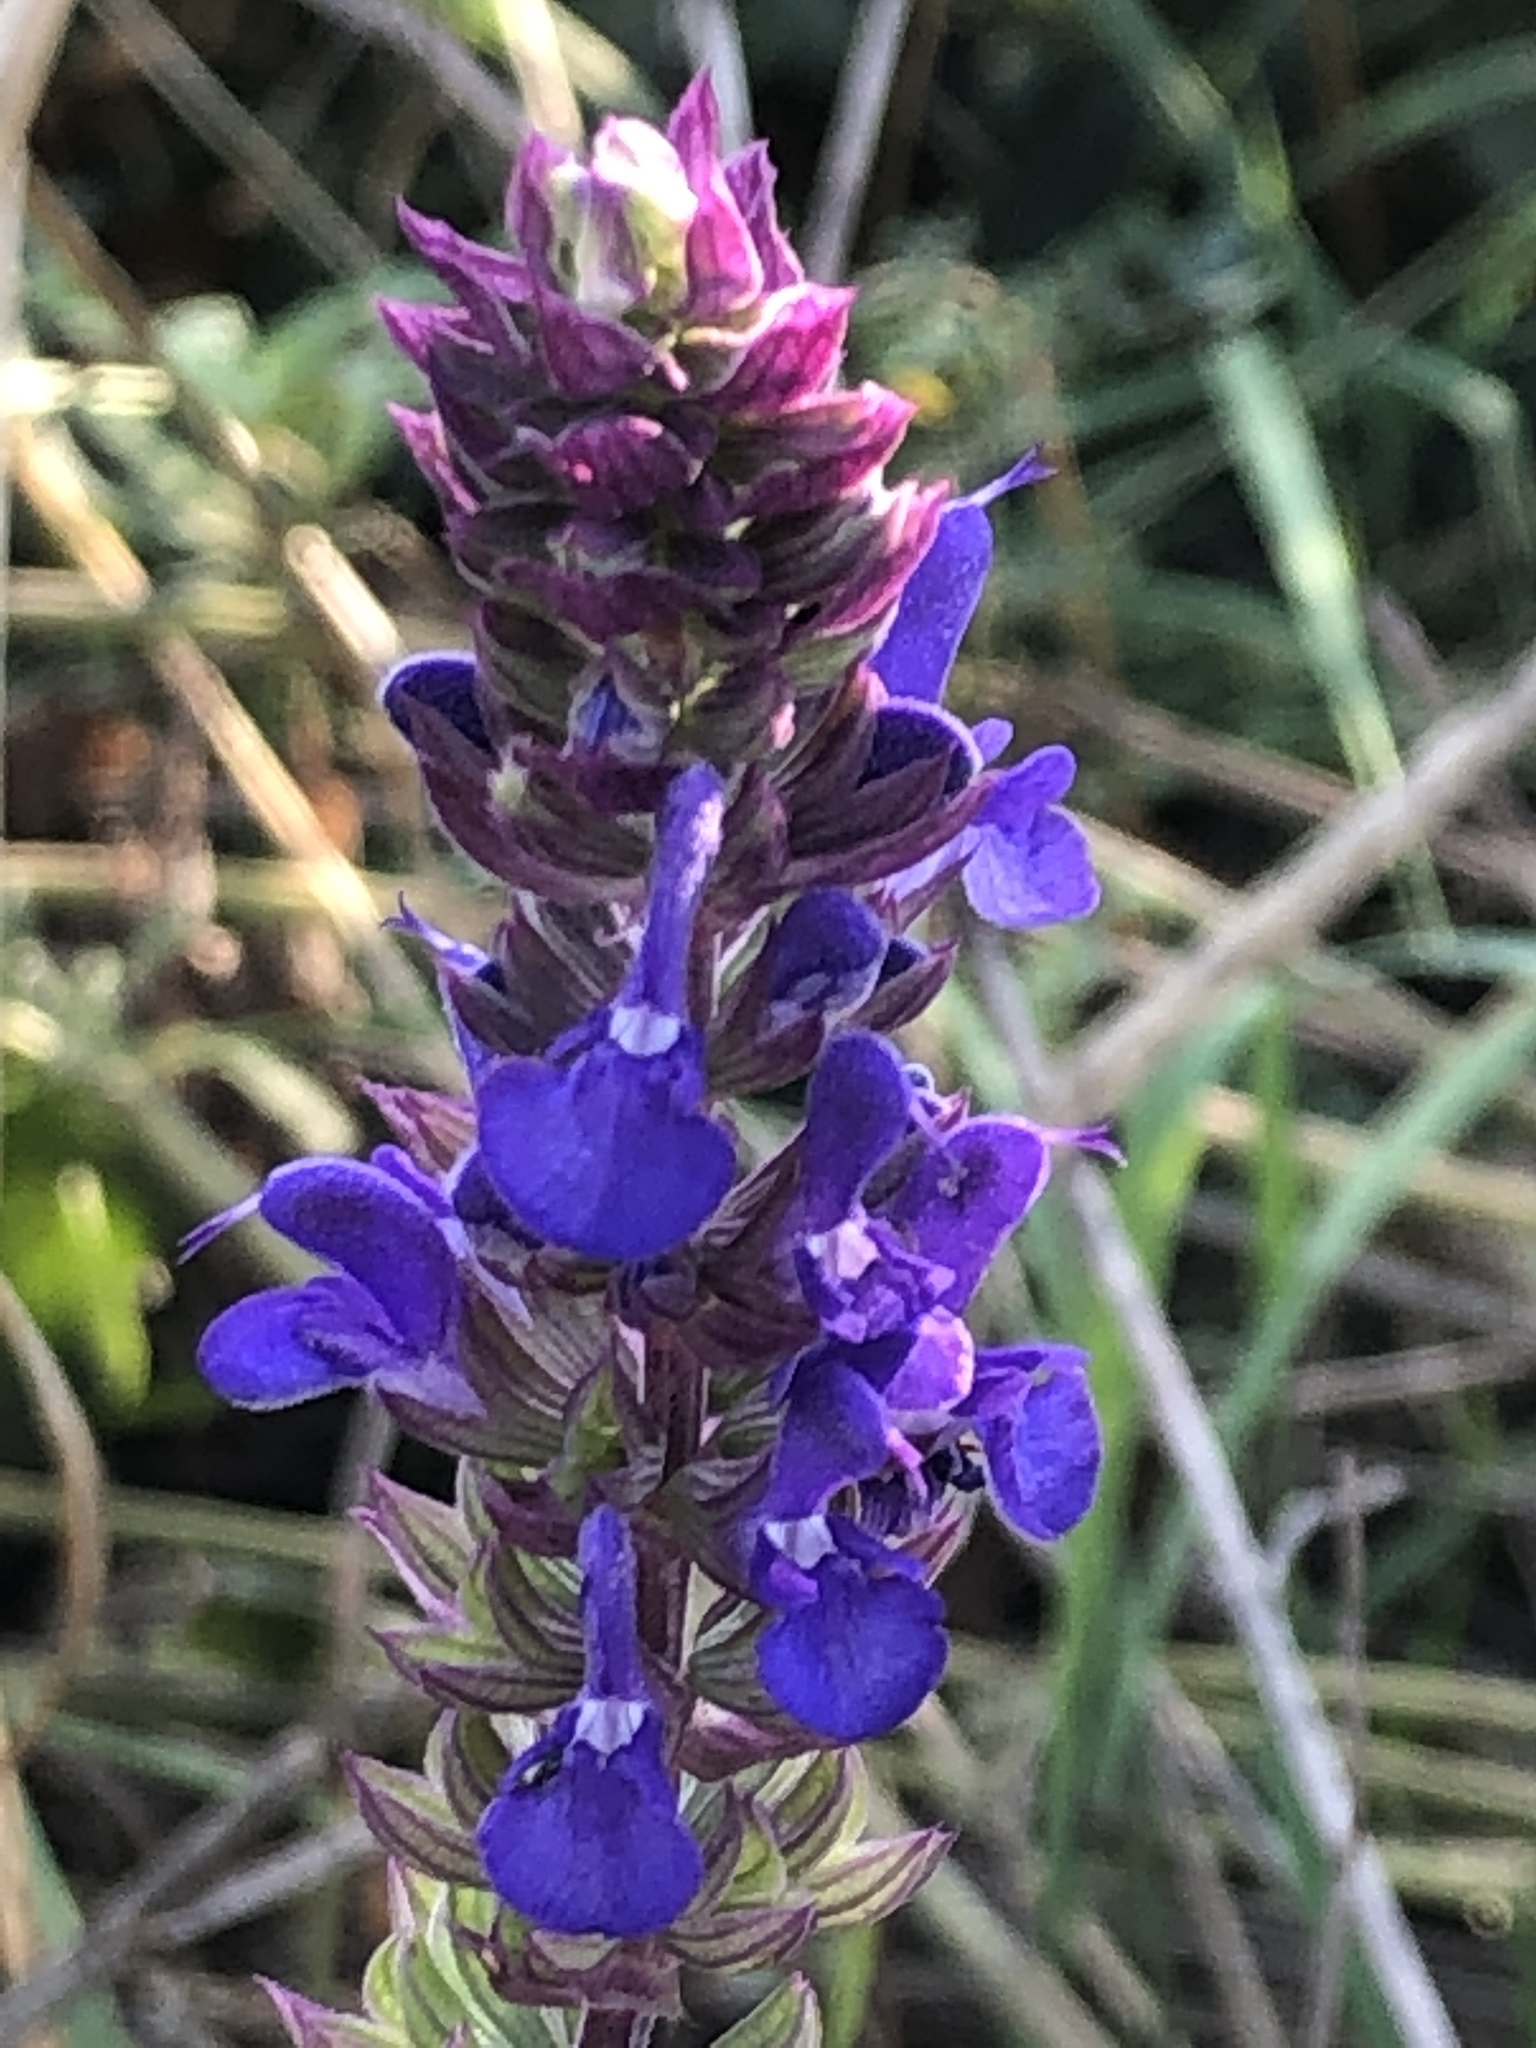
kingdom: Plantae
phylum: Tracheophyta
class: Magnoliopsida
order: Lamiales
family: Lamiaceae
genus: Salvia
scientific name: Salvia nemorosa
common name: Balkan clary
